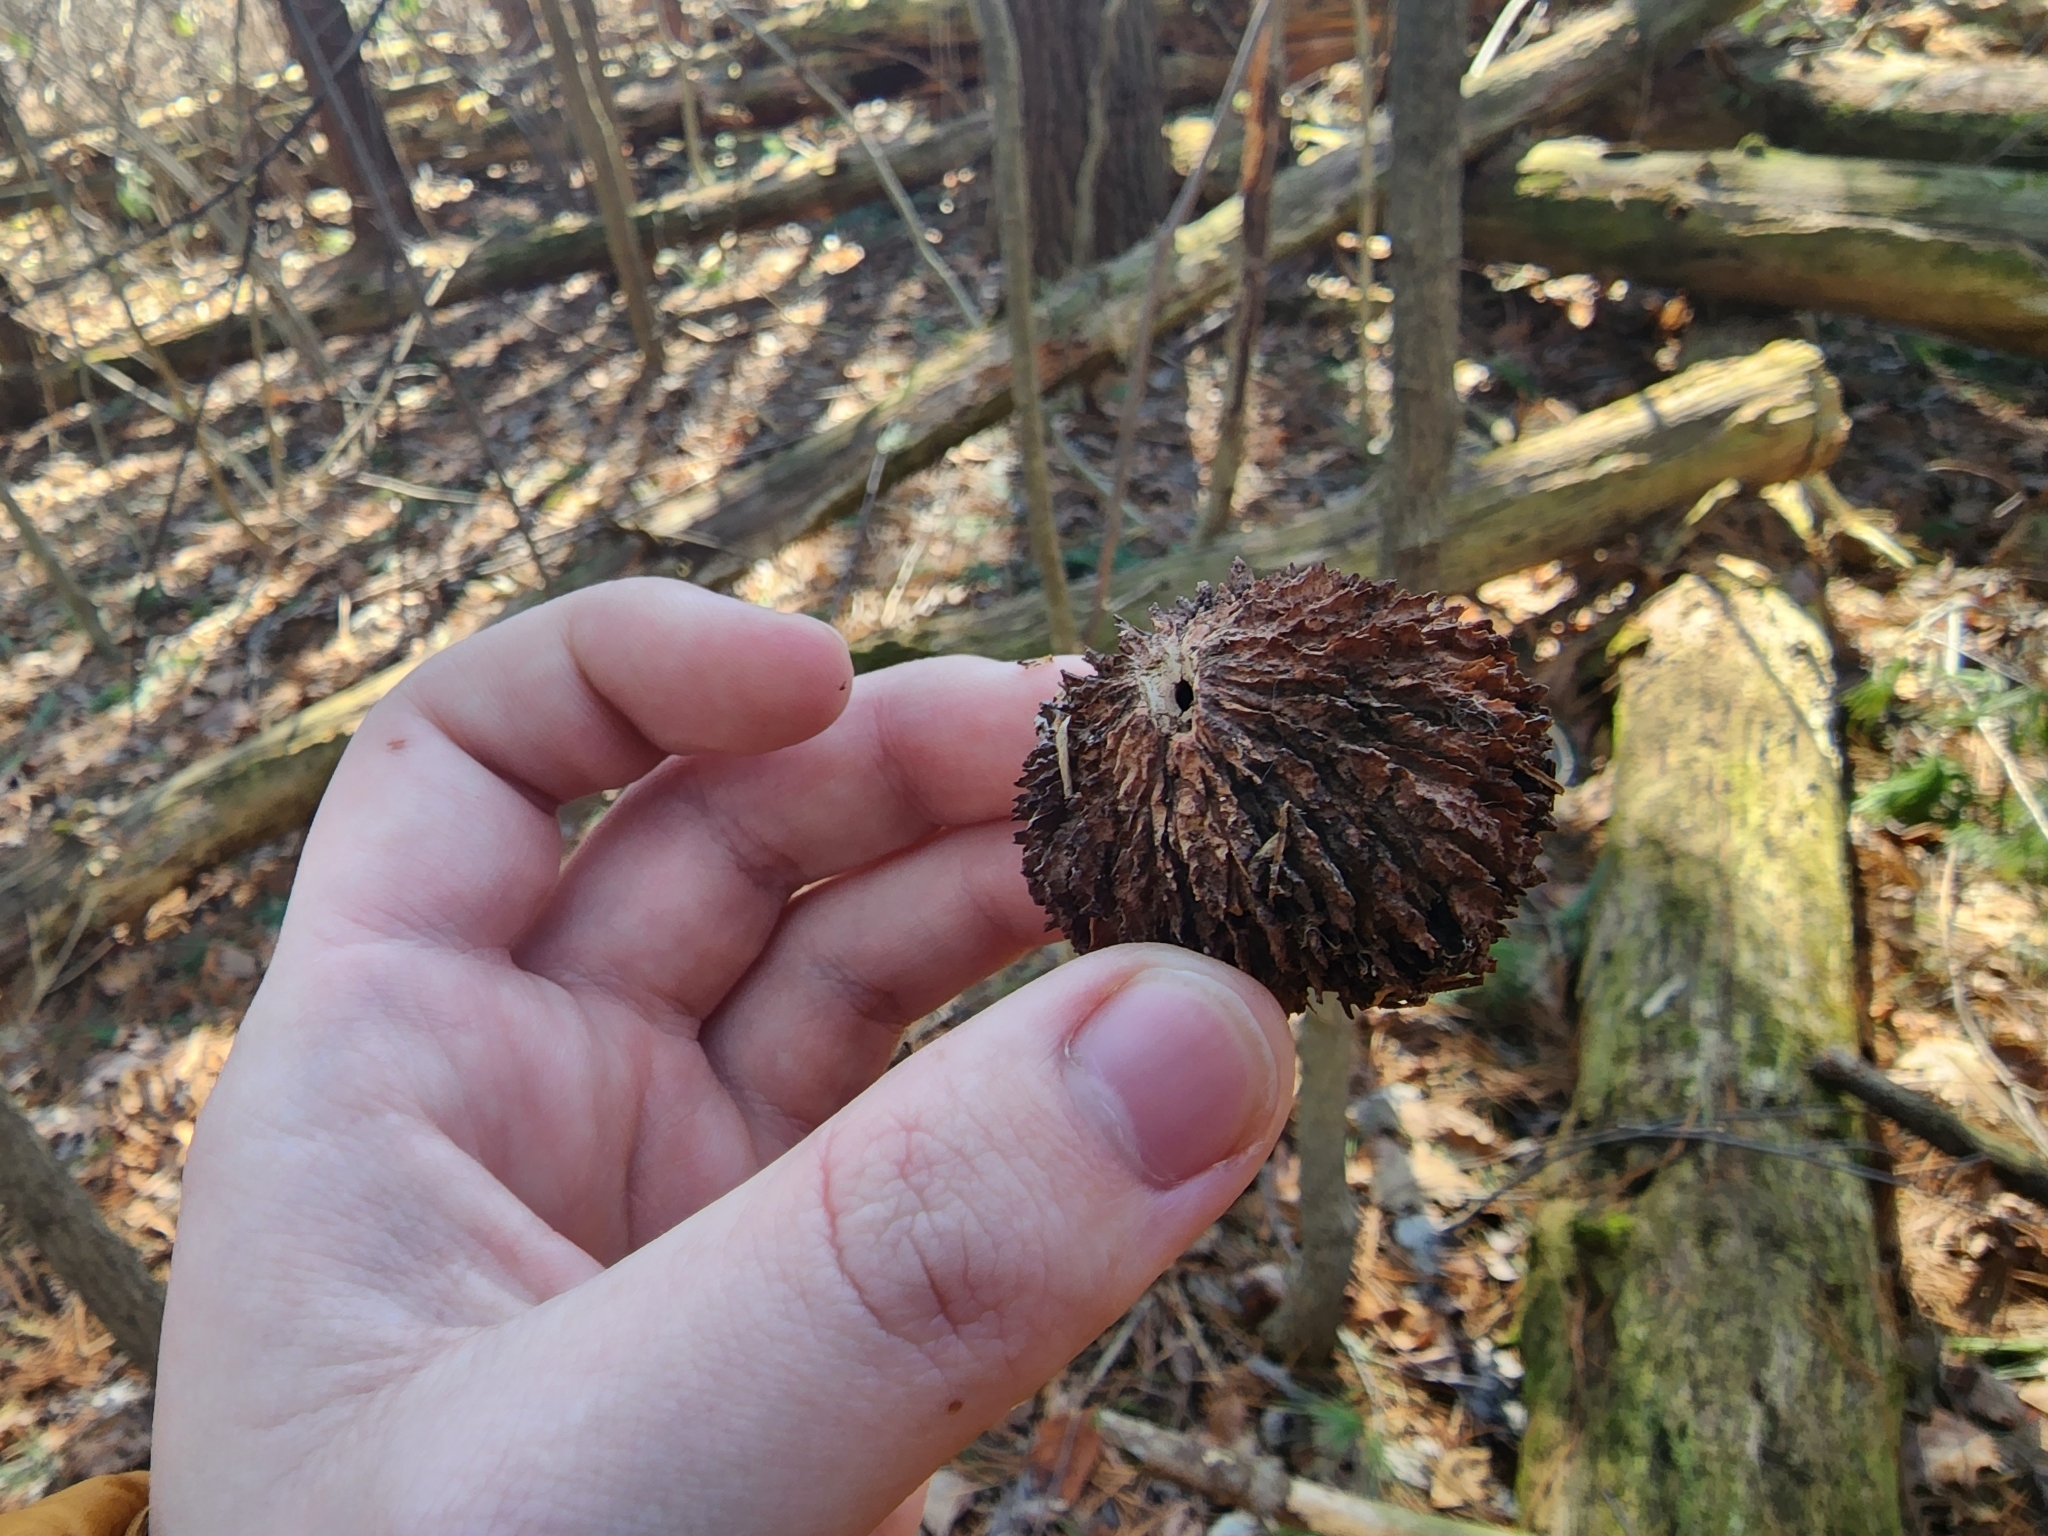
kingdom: Plantae
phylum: Tracheophyta
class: Magnoliopsida
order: Fagales
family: Juglandaceae
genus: Juglans
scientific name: Juglans nigra
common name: Black walnut
